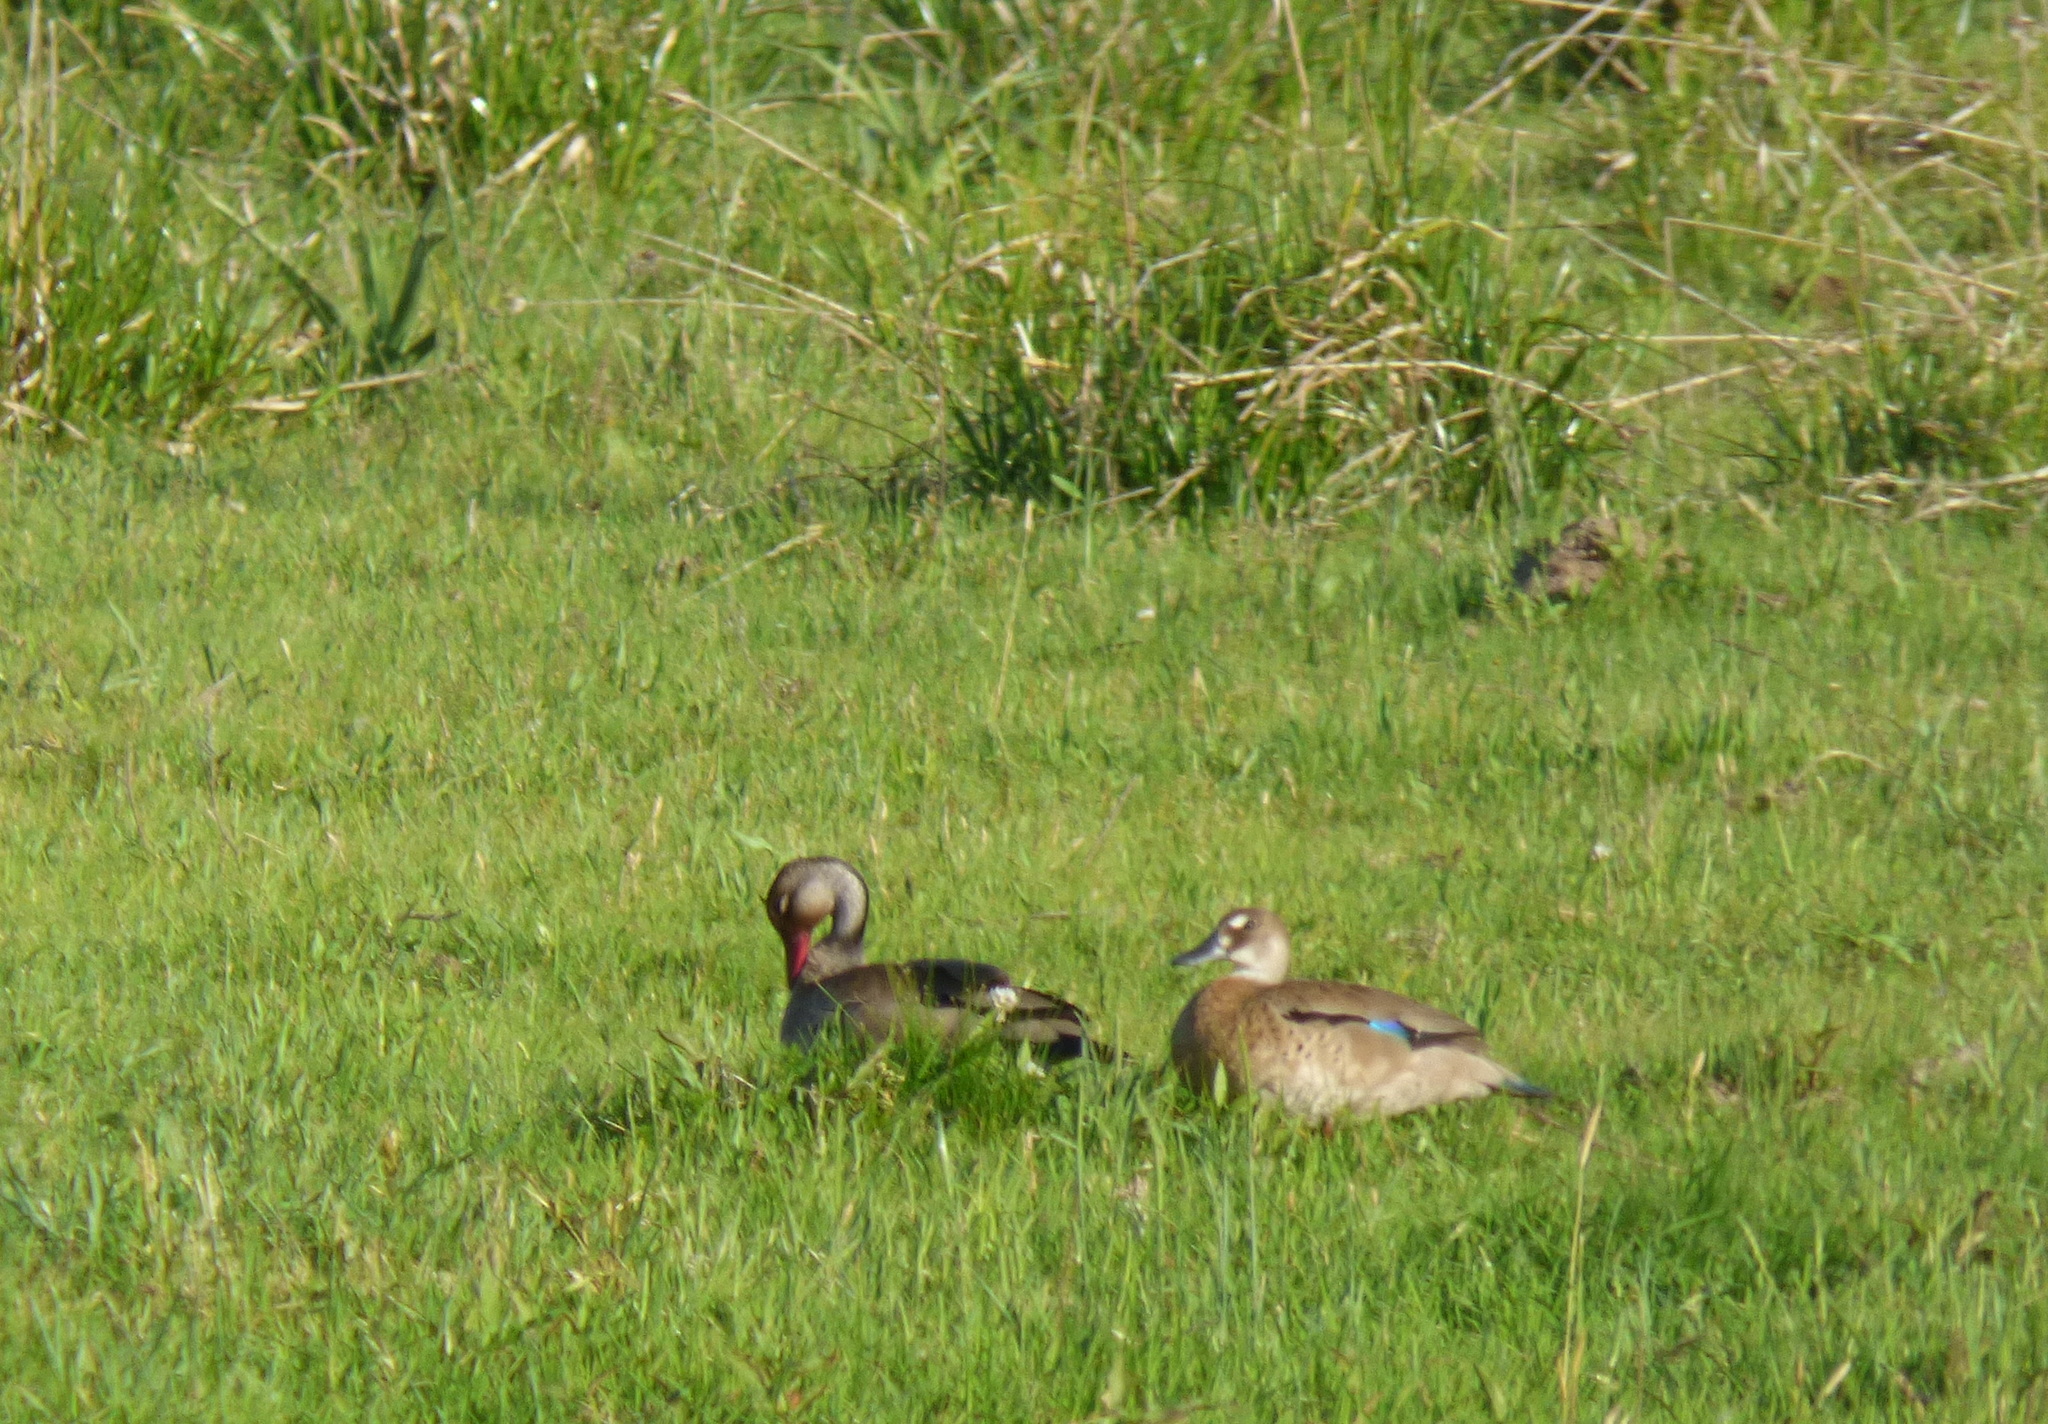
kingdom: Animalia
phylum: Chordata
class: Aves
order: Anseriformes
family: Anatidae
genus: Amazonetta
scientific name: Amazonetta brasiliensis
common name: Brazilian teal
